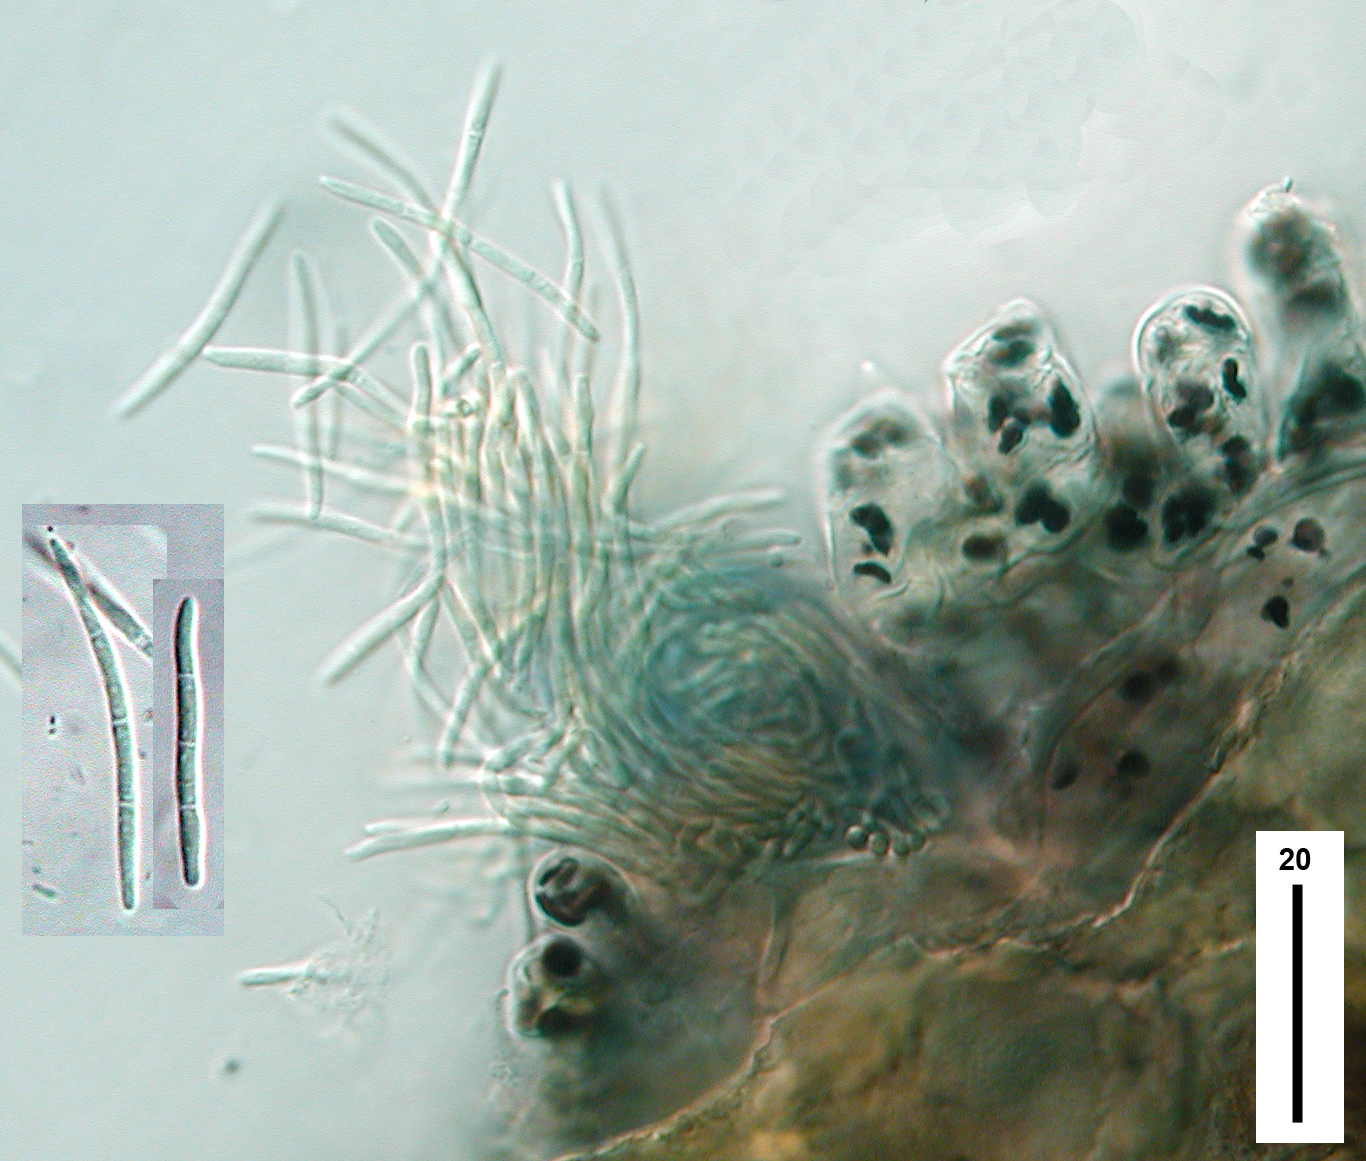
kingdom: Fungi
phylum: Ascomycota
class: Dothideomycetes
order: Mycosphaerellales
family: Mycosphaerellaceae
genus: Sphaerulina
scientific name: Sphaerulina westendorpii
